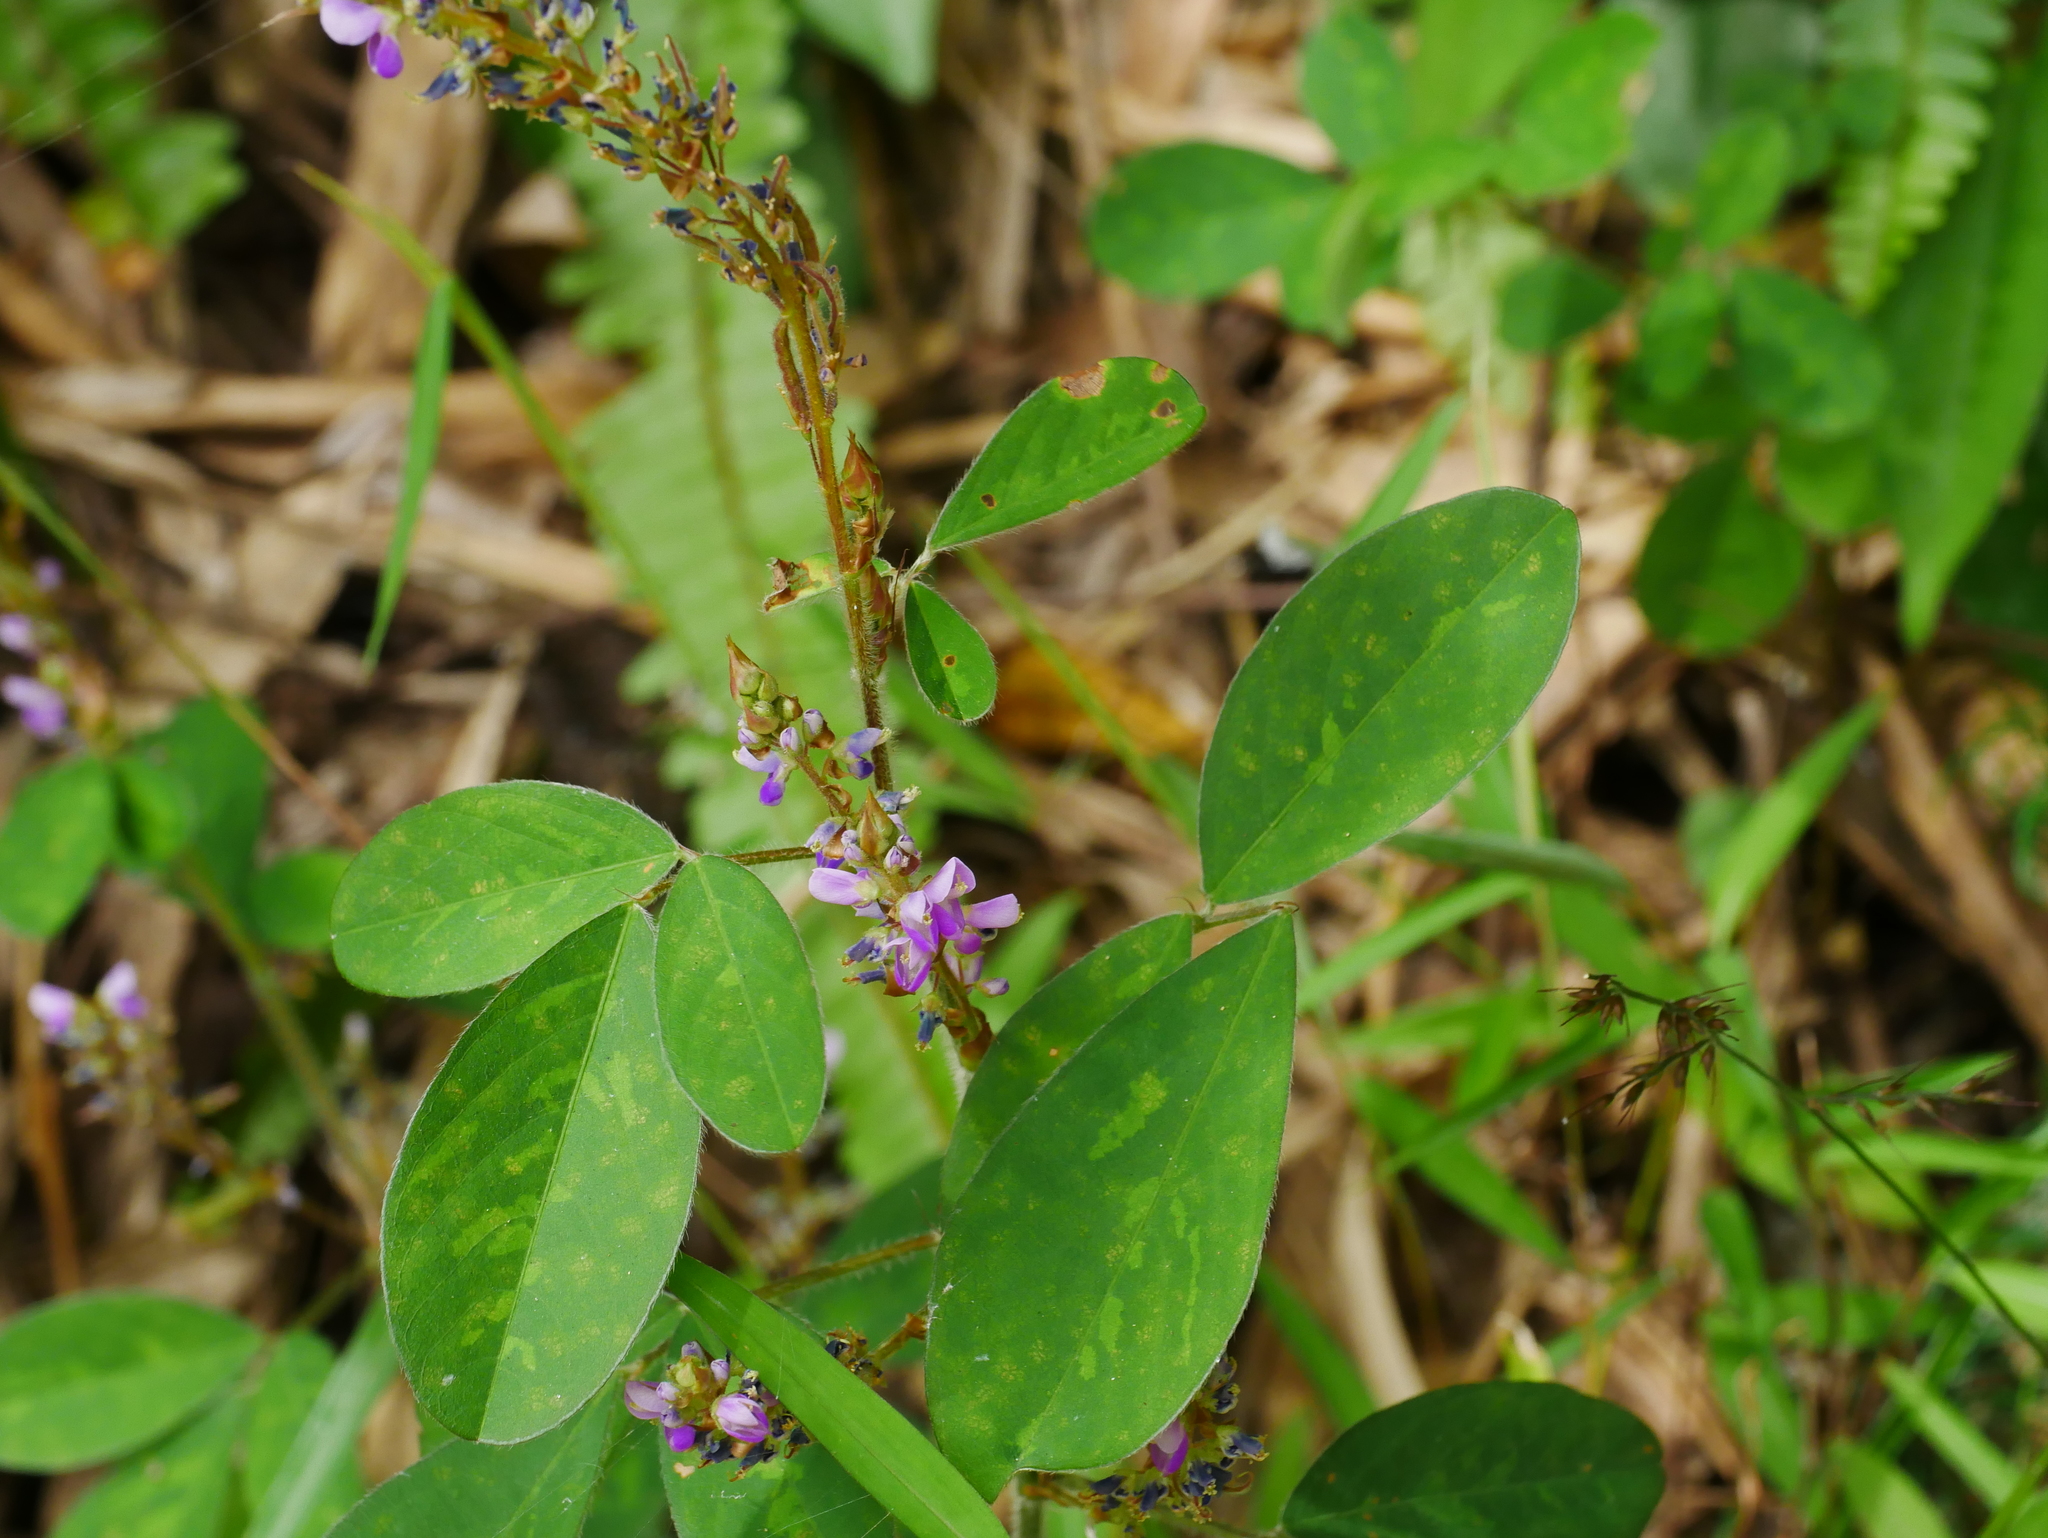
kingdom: Plantae
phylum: Tracheophyta
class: Magnoliopsida
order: Fabales
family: Fabaceae
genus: Grona
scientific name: Grona heterocarpos
